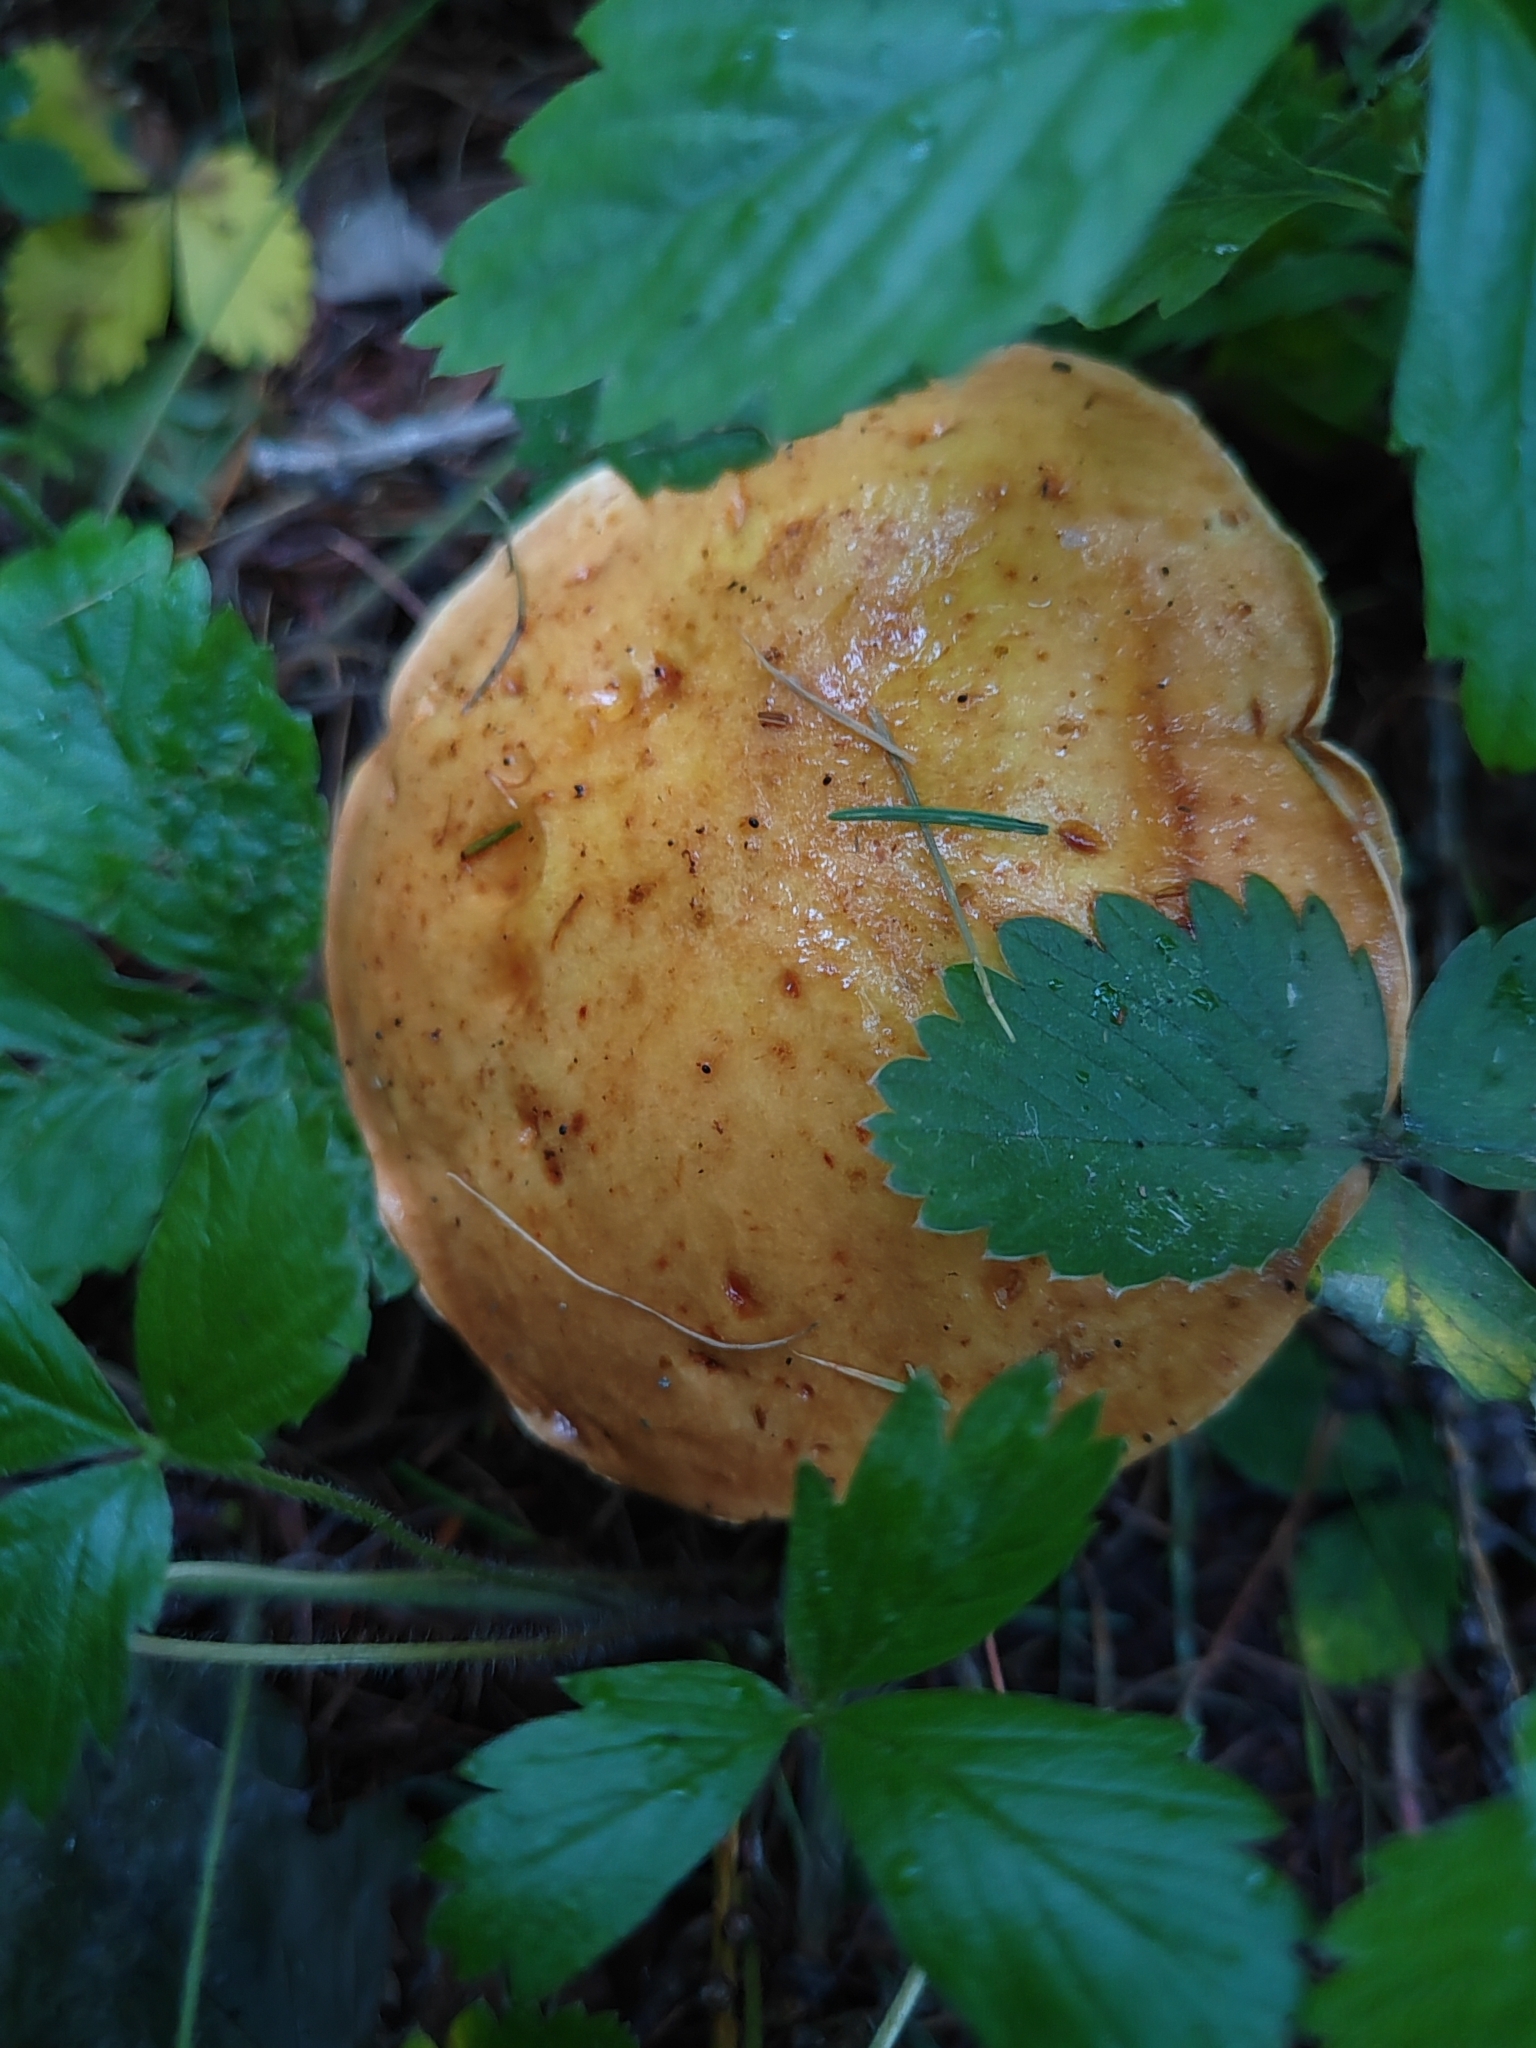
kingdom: Fungi
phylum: Basidiomycota
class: Agaricomycetes
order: Boletales
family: Suillaceae
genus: Suillus
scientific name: Suillus grevillei
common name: Larch bolete
